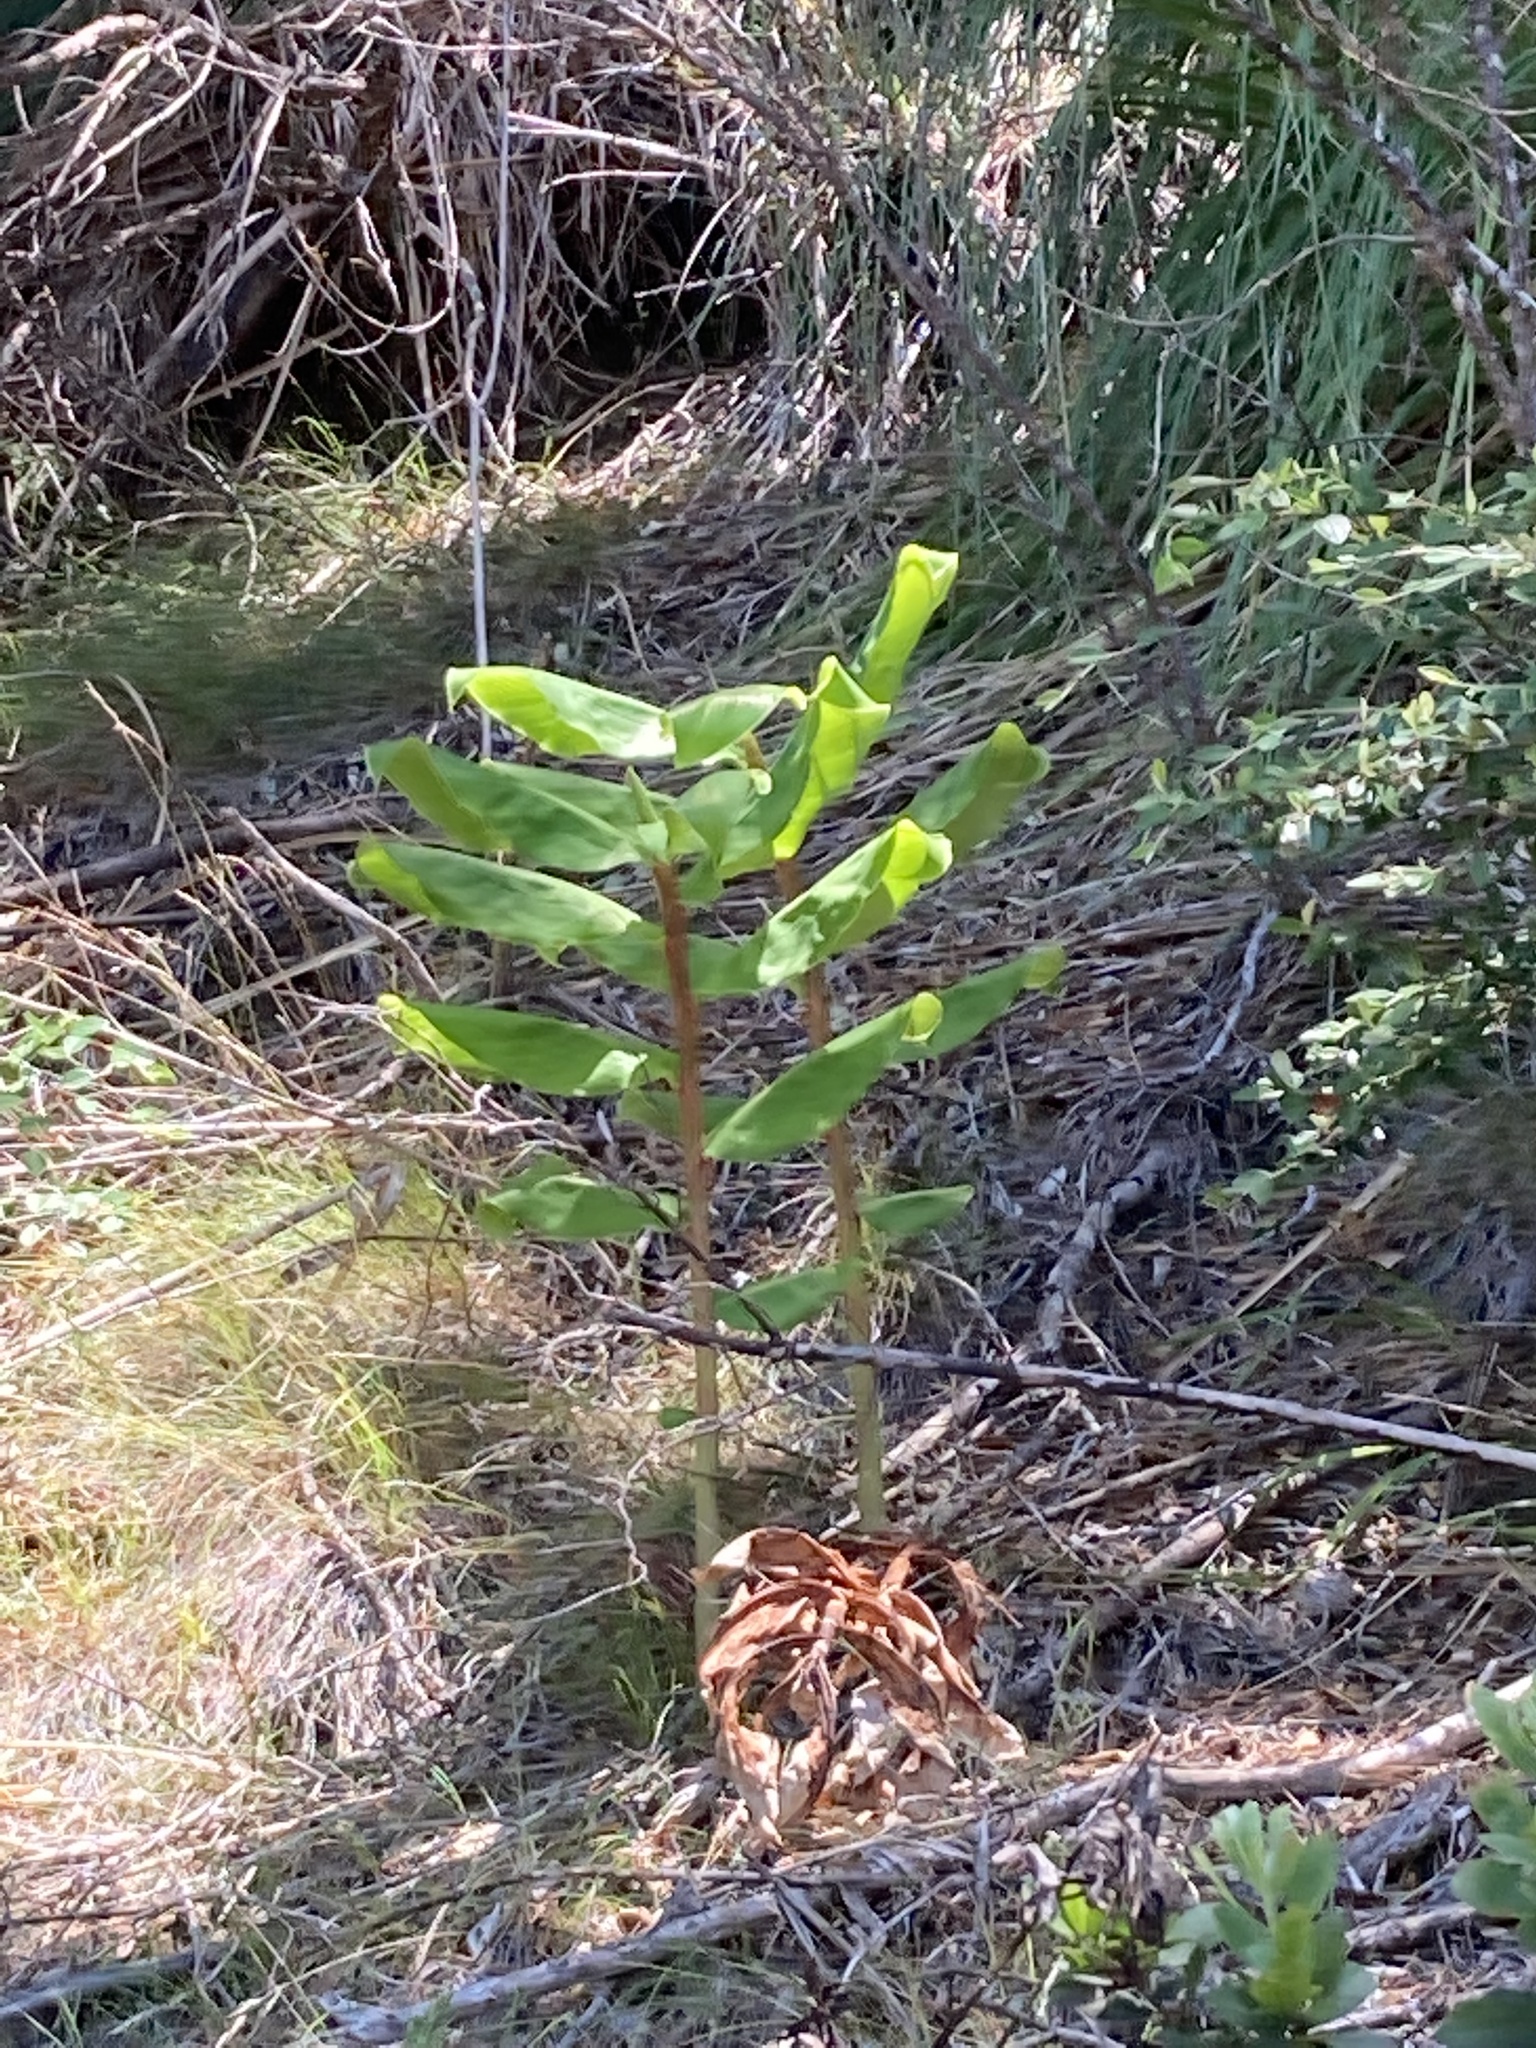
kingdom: Plantae
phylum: Tracheophyta
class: Liliopsida
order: Zingiberales
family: Zingiberaceae
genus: Hedychium
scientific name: Hedychium gardnerianum
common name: Himalayan ginger
